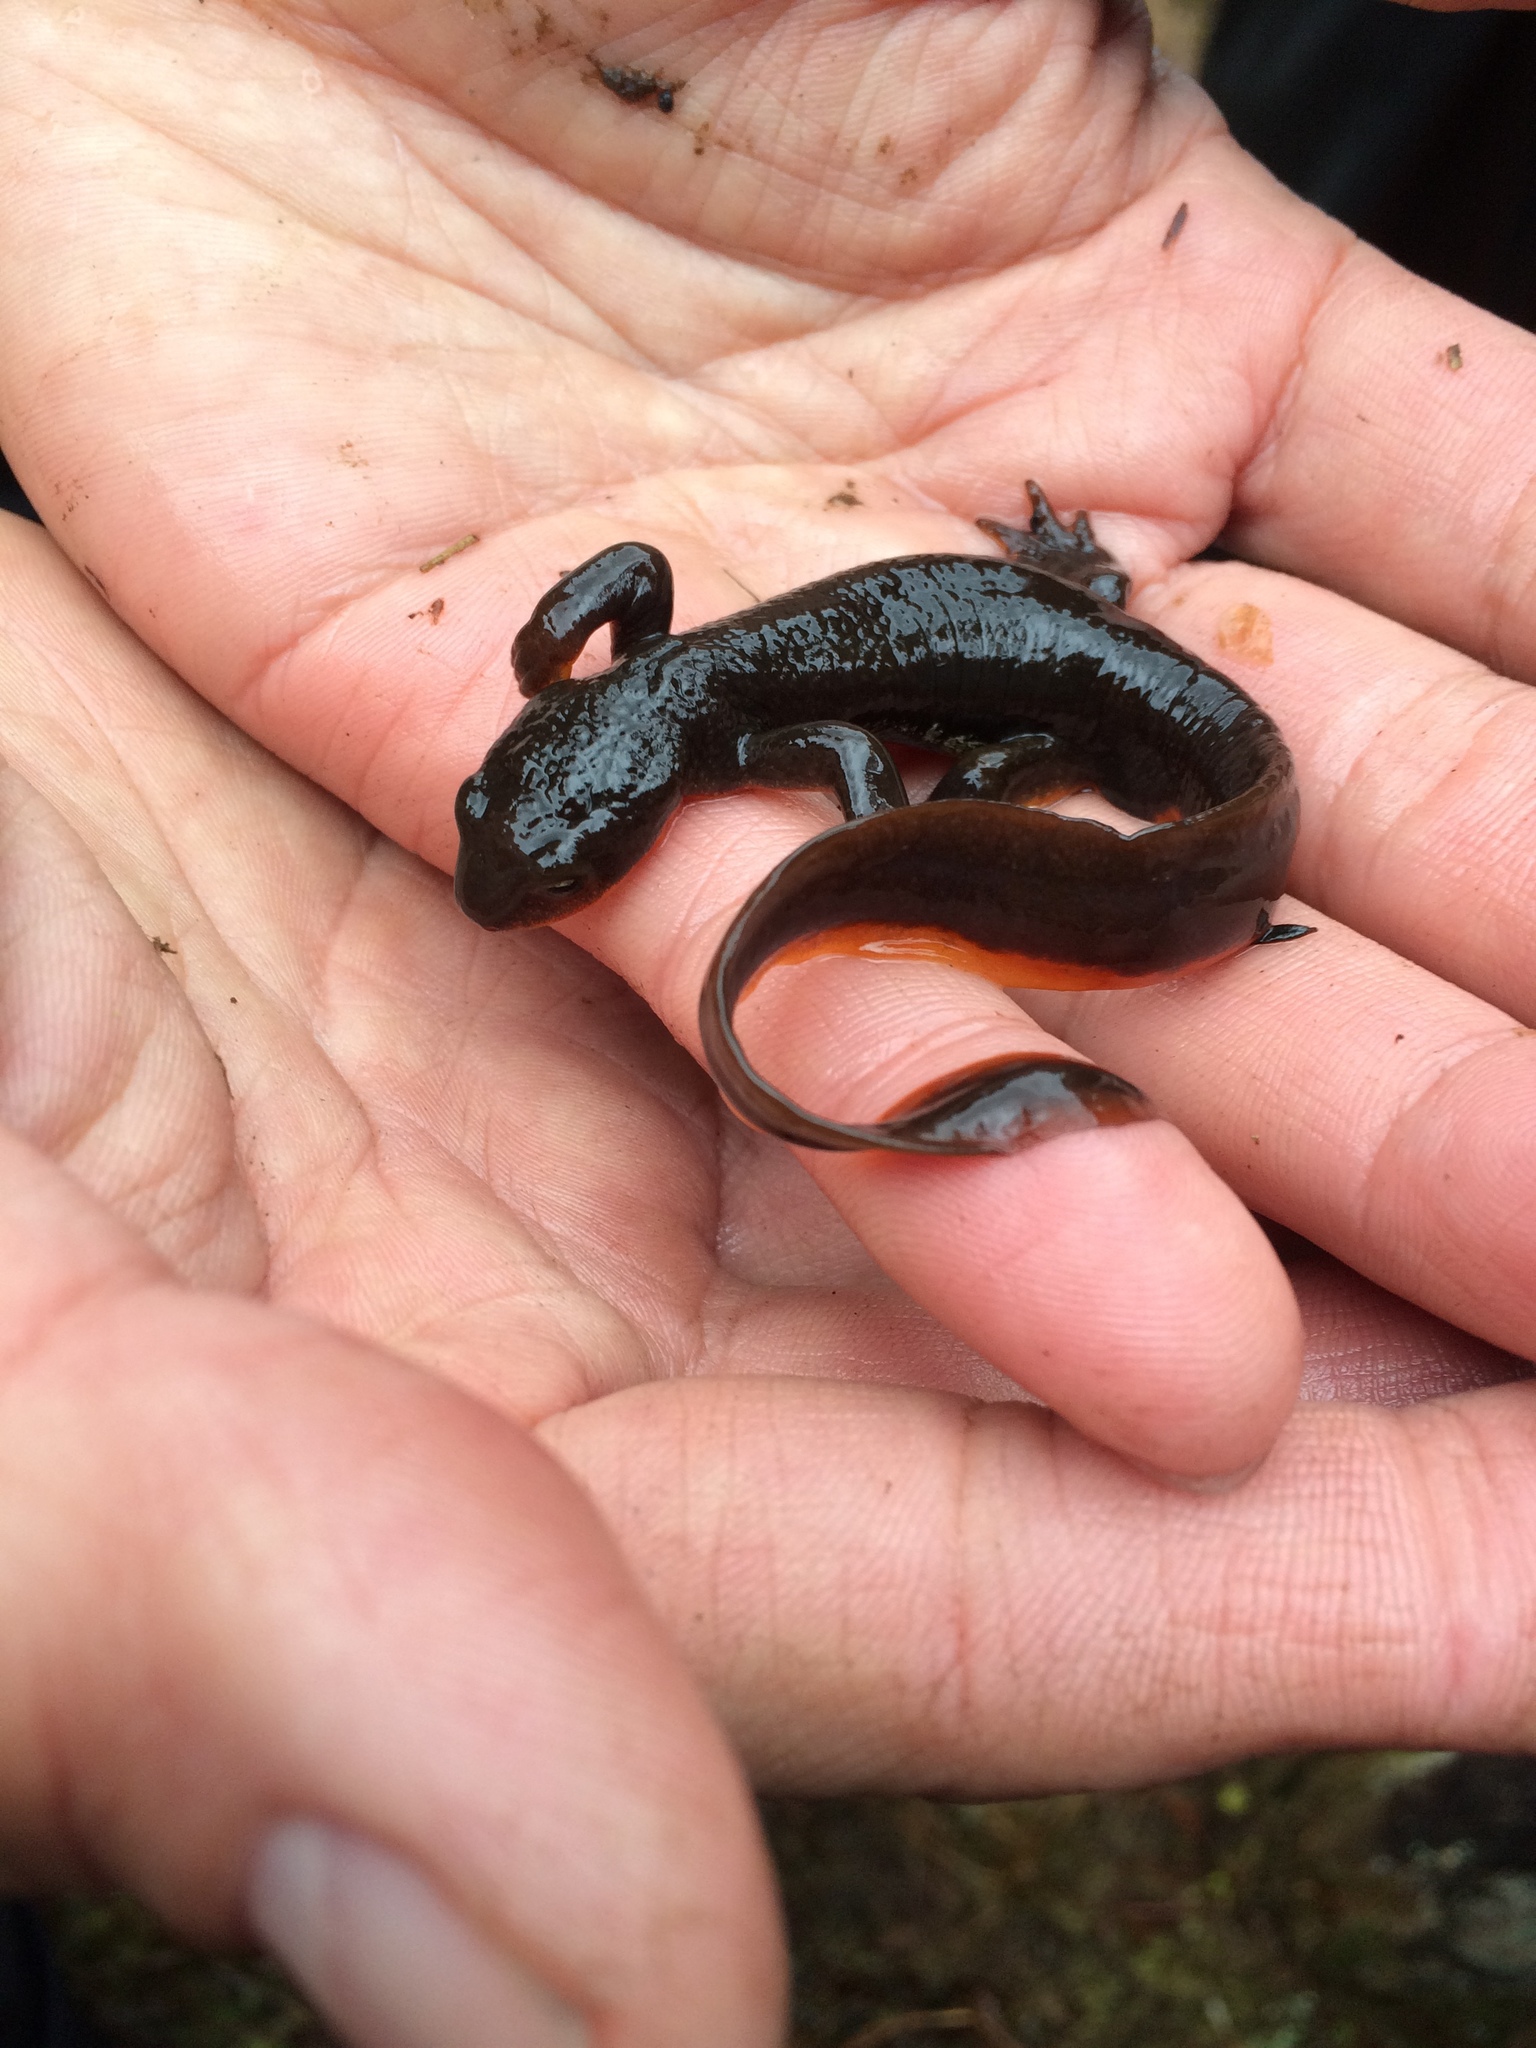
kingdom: Animalia
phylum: Chordata
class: Amphibia
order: Caudata
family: Salamandridae
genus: Taricha
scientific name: Taricha granulosa
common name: Roughskin newt
